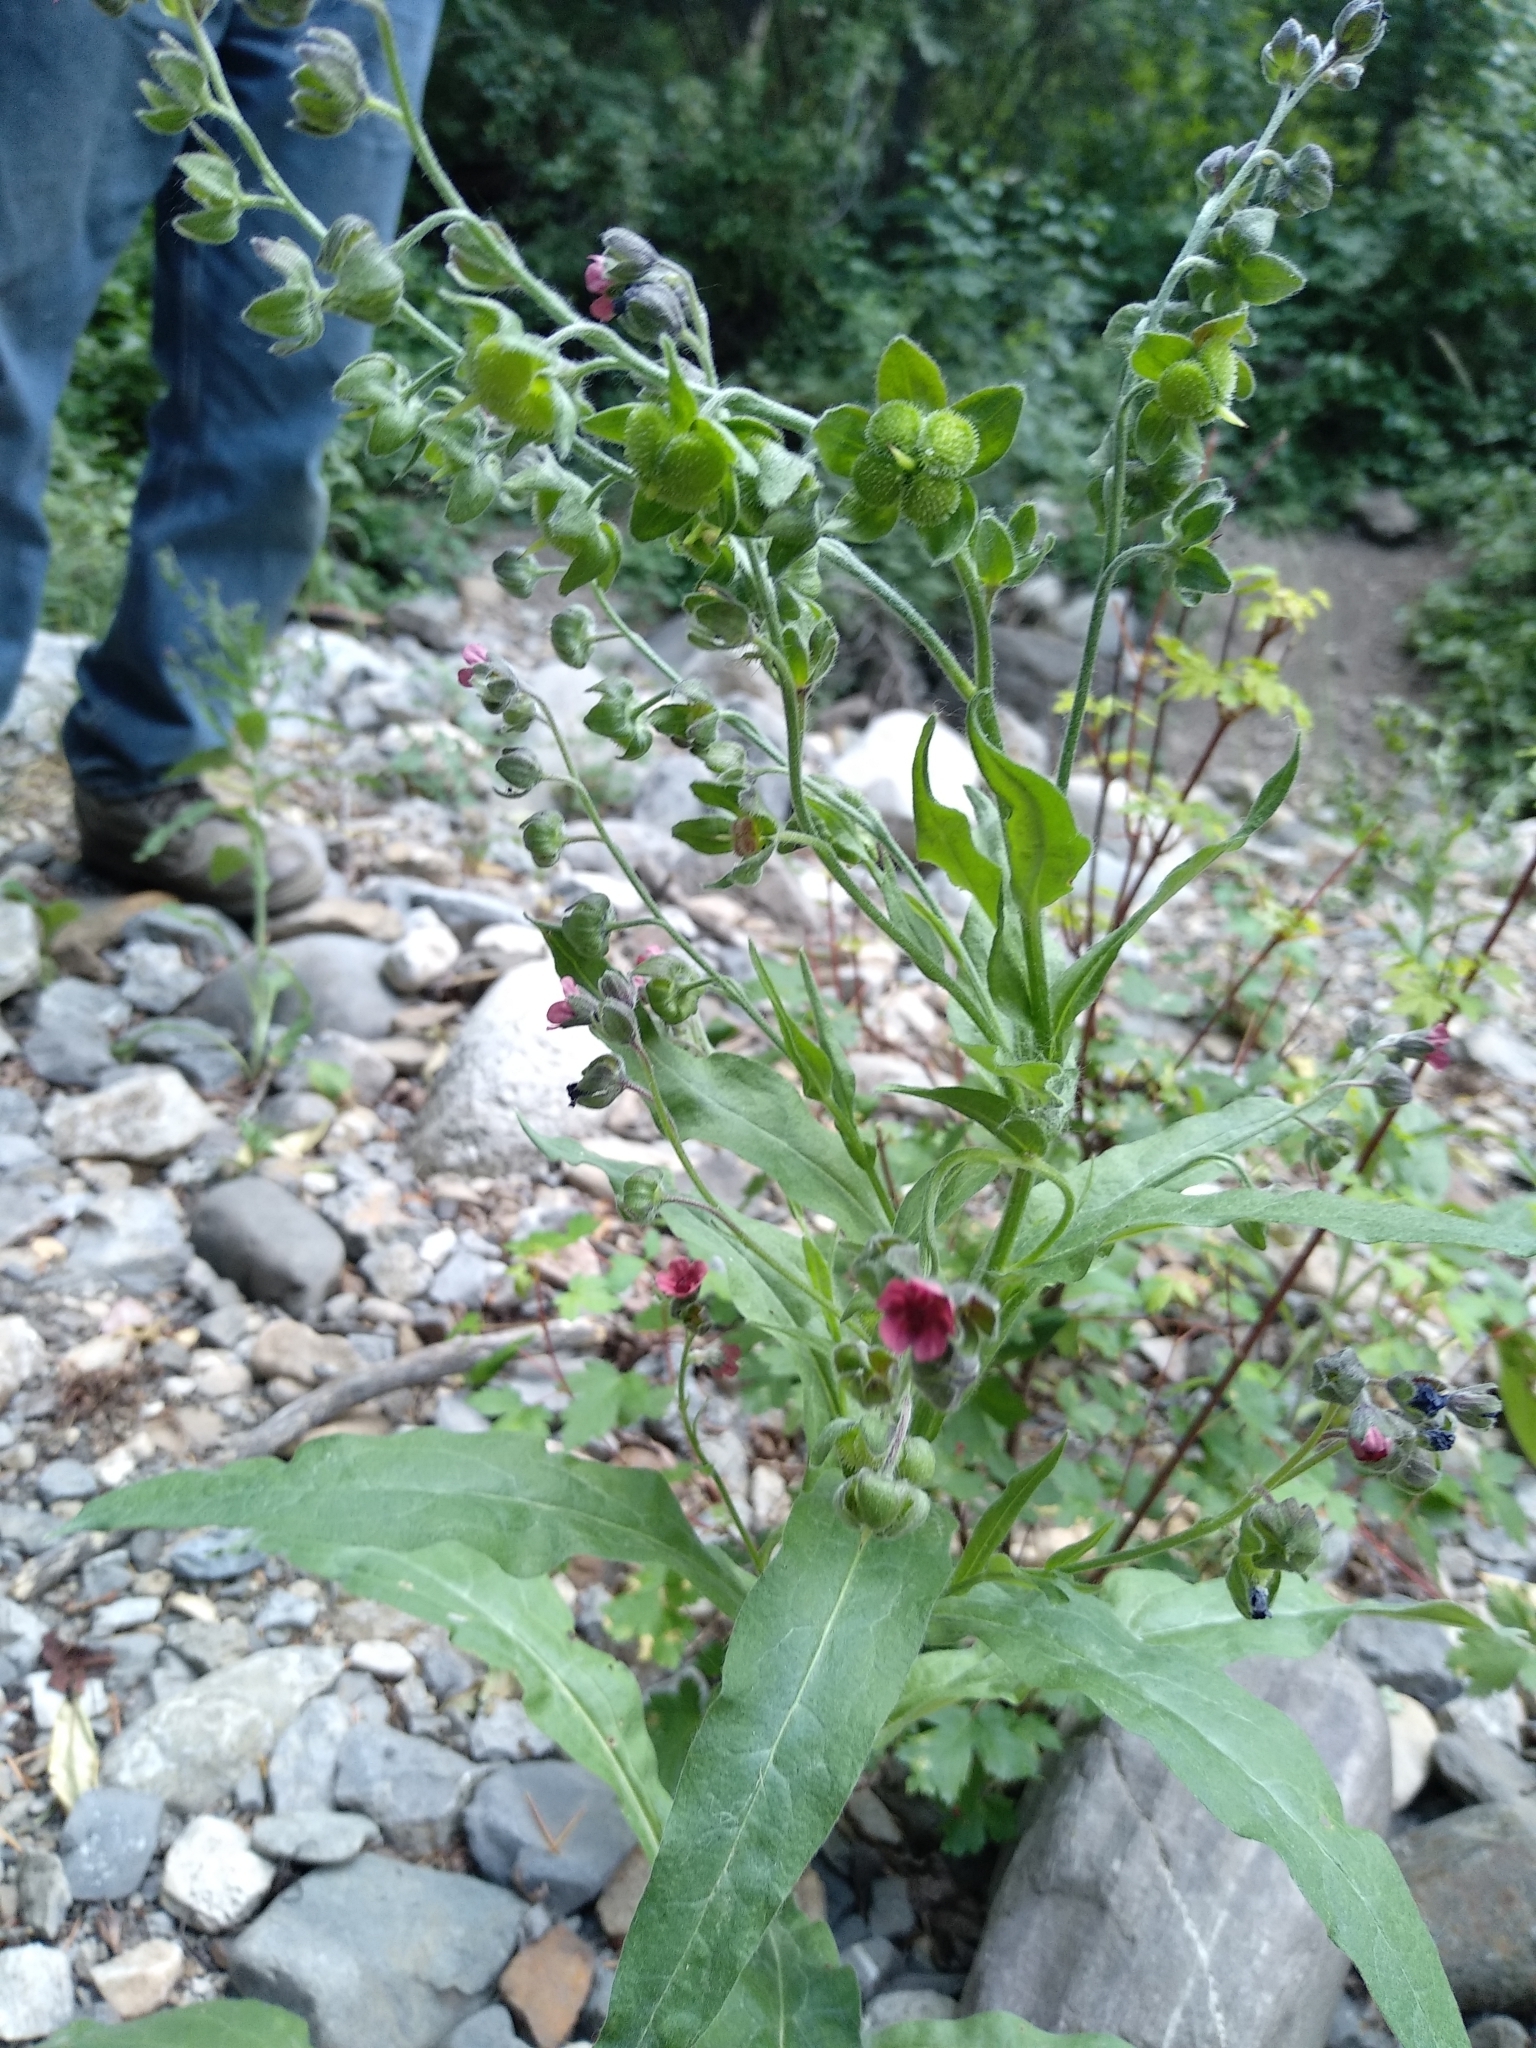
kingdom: Plantae
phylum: Tracheophyta
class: Magnoliopsida
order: Boraginales
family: Boraginaceae
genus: Cynoglossum
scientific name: Cynoglossum officinale
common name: Hound's-tongue
